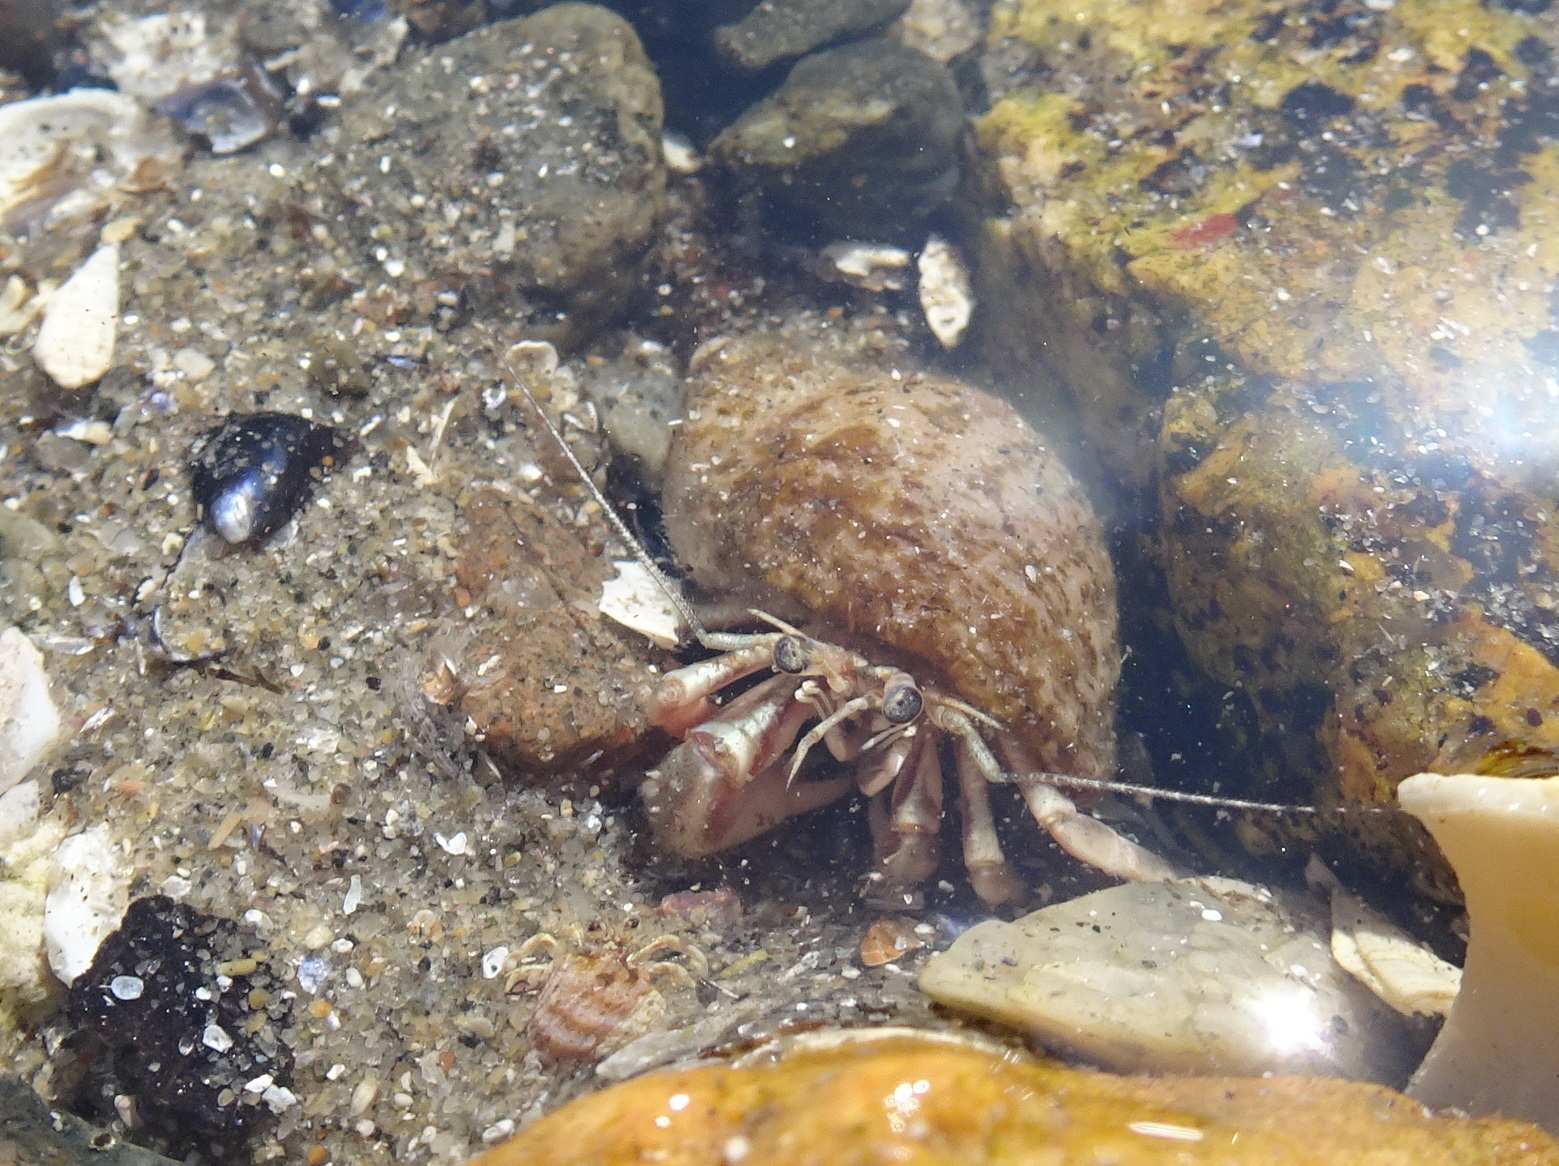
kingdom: Animalia
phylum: Arthropoda
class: Malacostraca
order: Decapoda
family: Paguridae
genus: Pagurus
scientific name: Pagurus longicarpus
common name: Long-armed hermit crab
